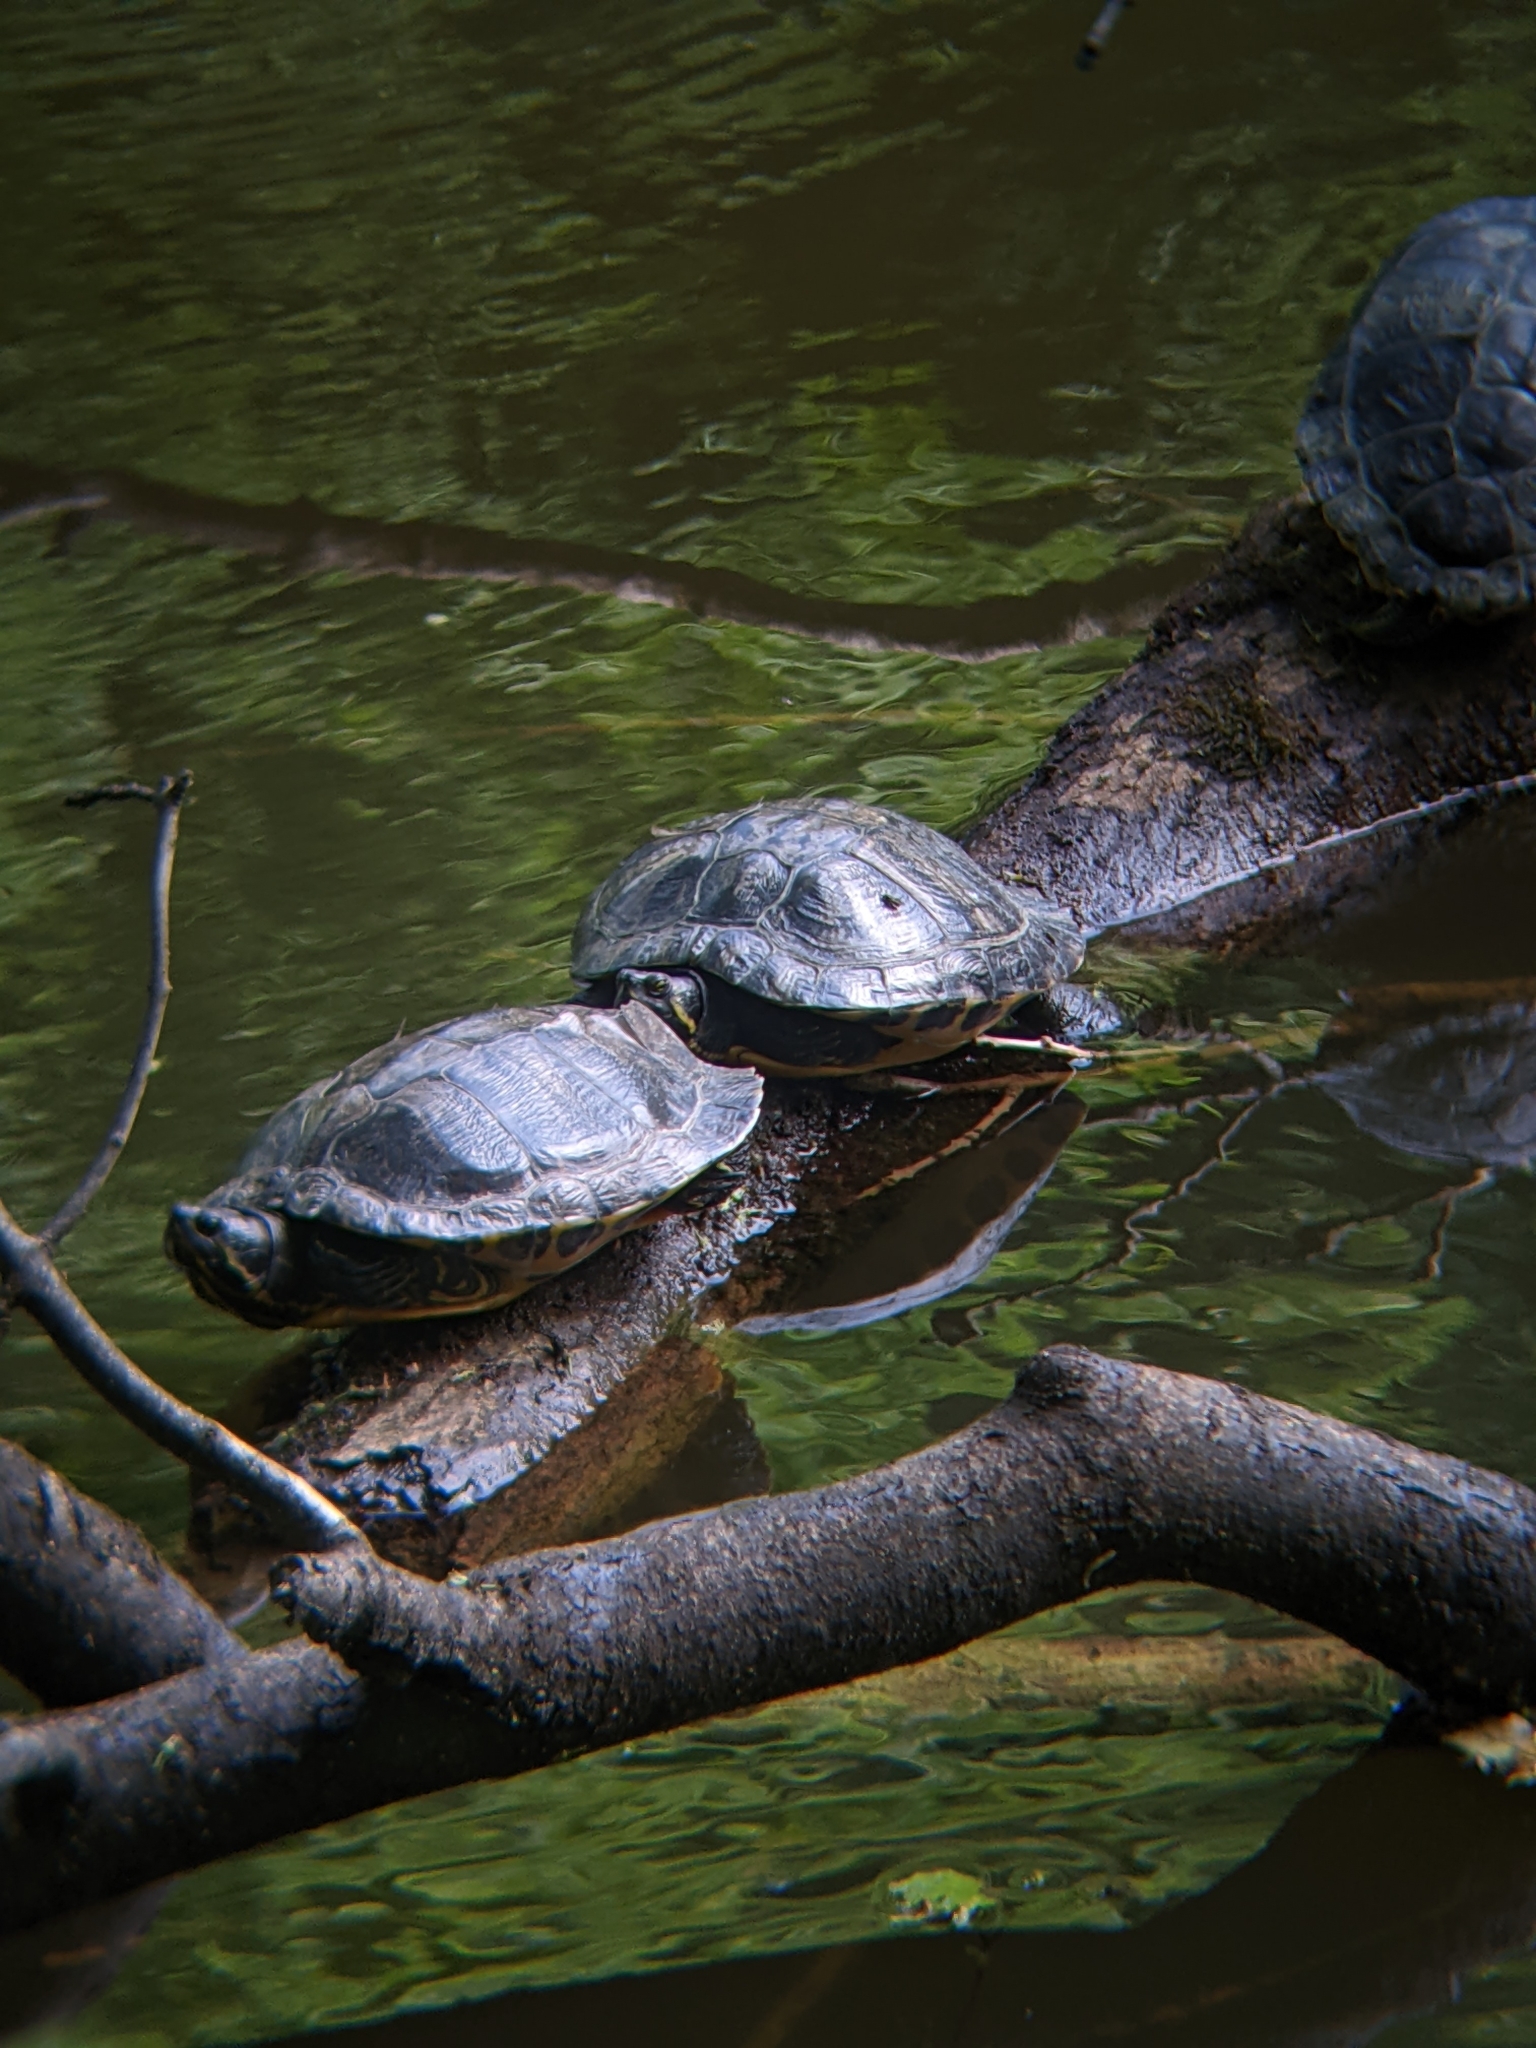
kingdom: Animalia
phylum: Chordata
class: Testudines
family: Emydidae
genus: Trachemys
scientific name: Trachemys scripta
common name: Slider
